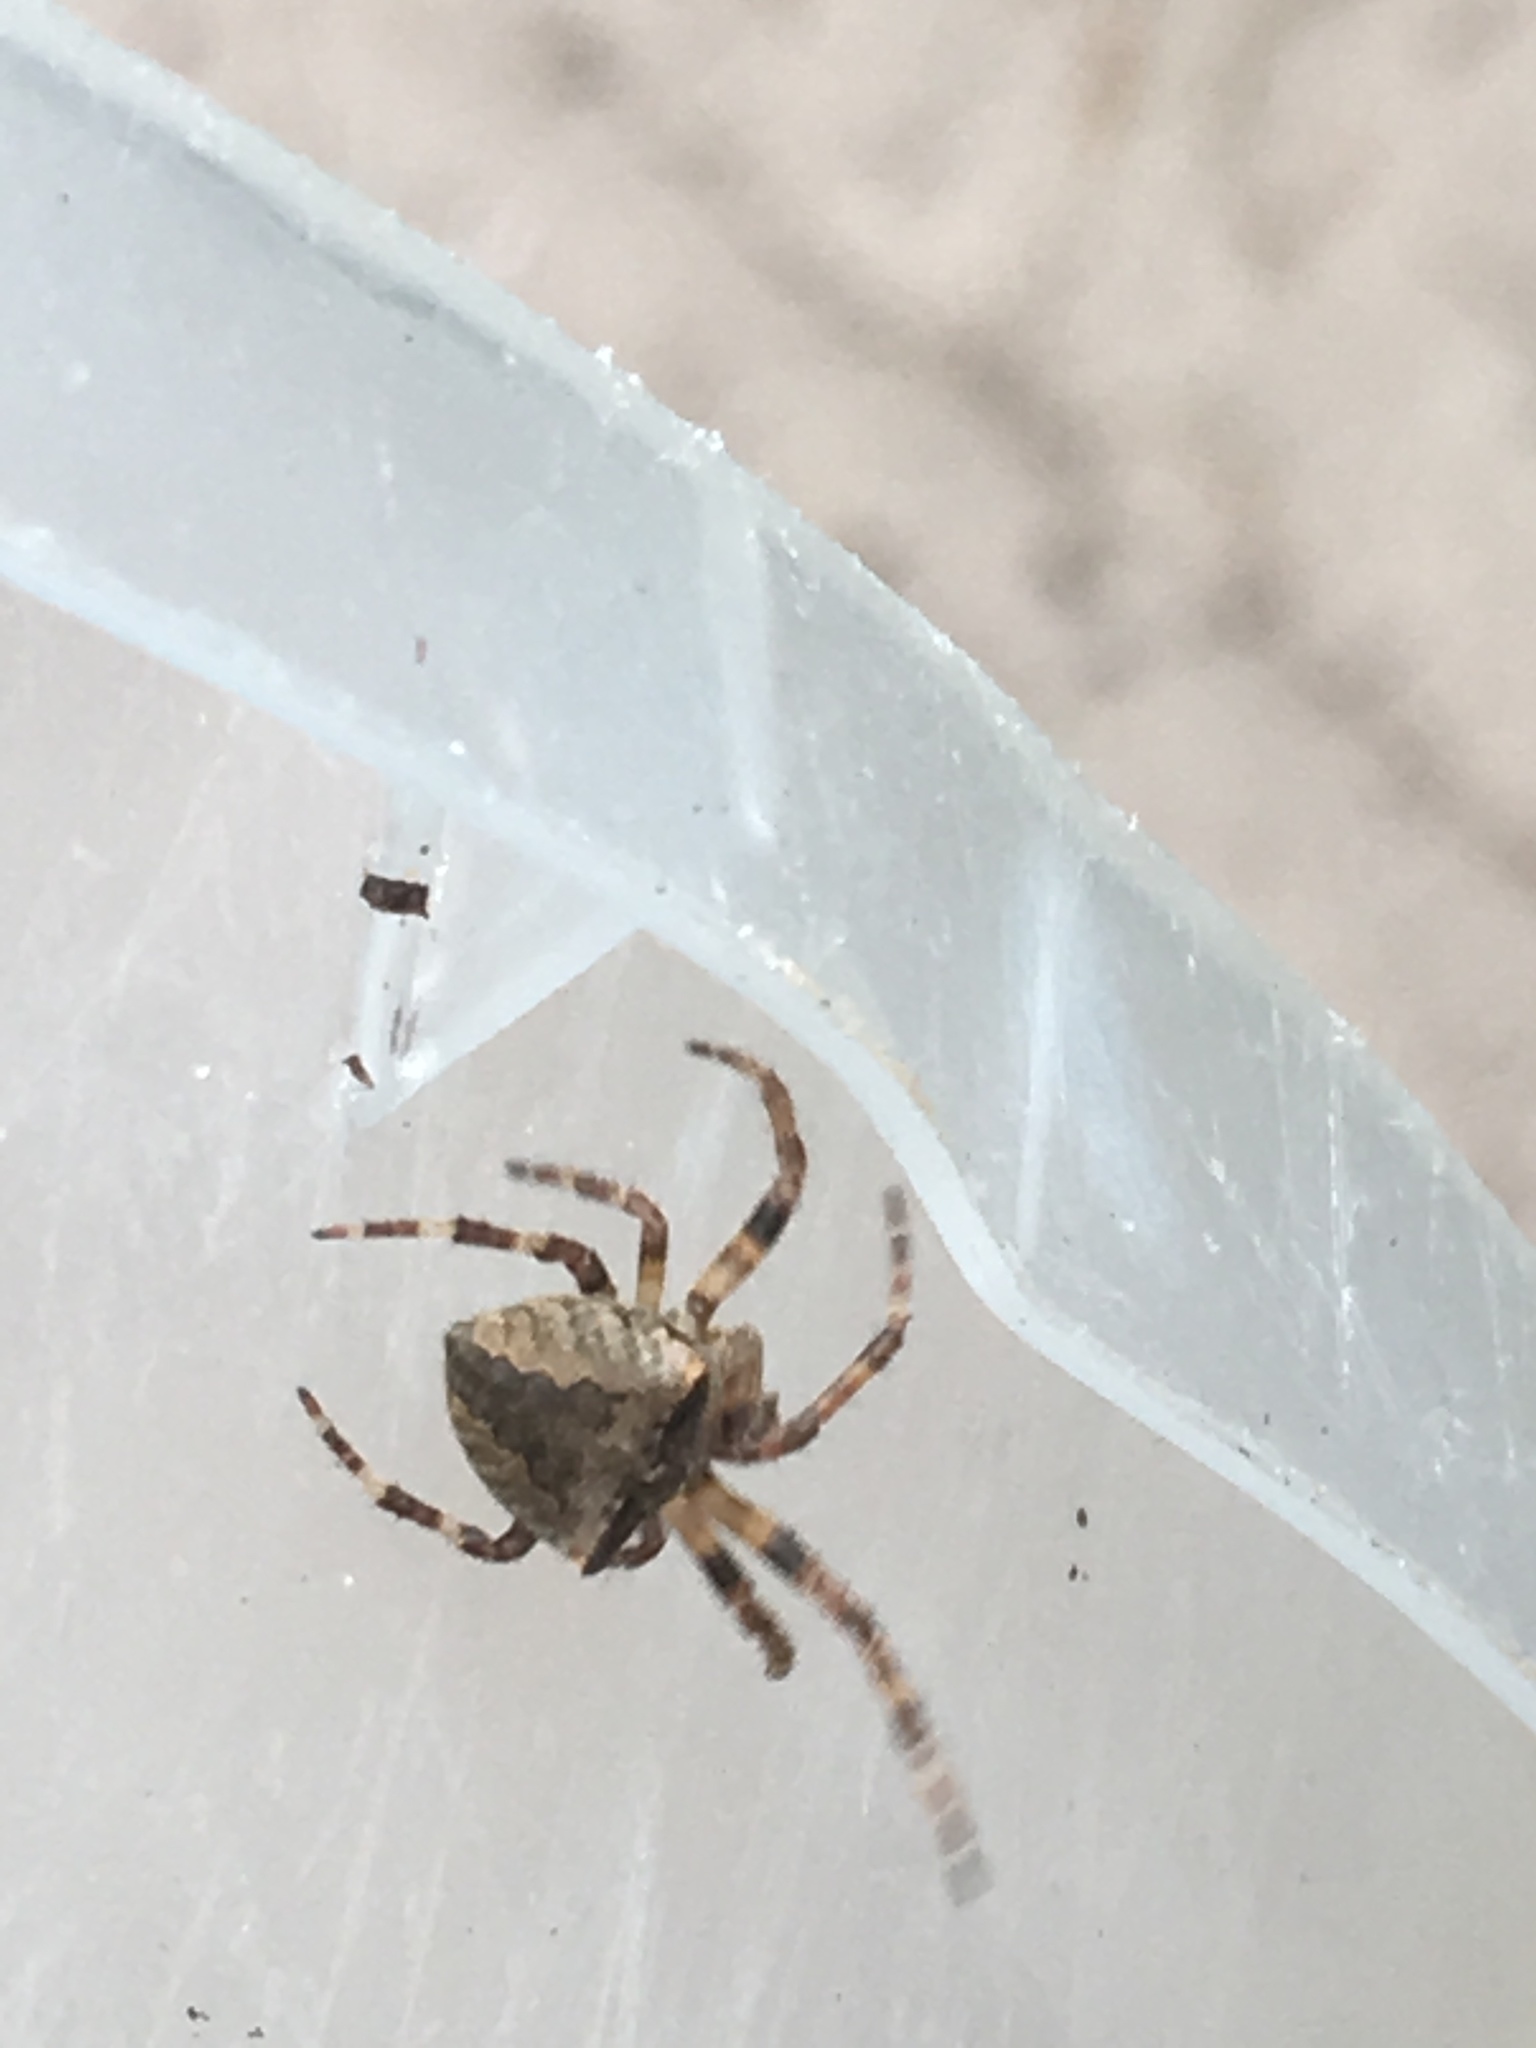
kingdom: Animalia
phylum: Arthropoda
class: Arachnida
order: Araneae
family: Araneidae
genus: Araneus
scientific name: Araneus angulatus
